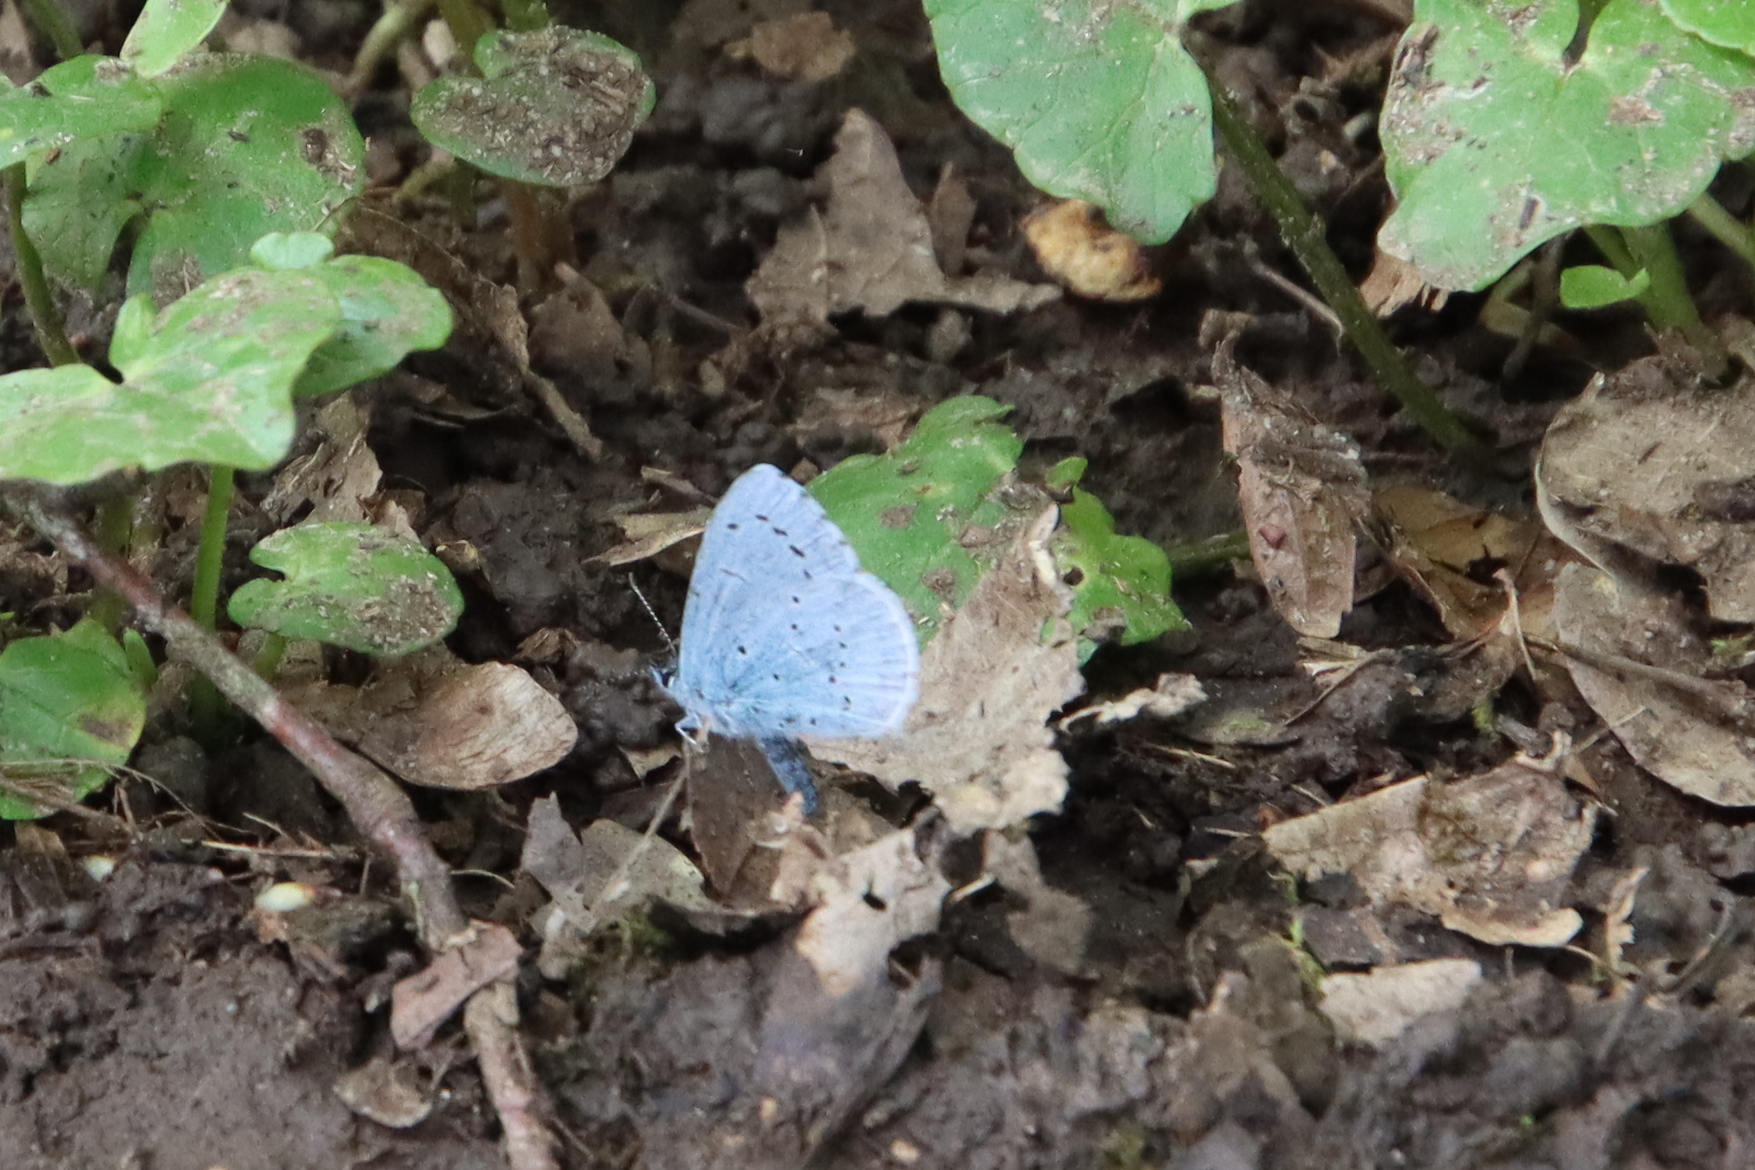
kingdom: Animalia
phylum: Arthropoda
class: Insecta
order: Lepidoptera
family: Lycaenidae
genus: Celastrina
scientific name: Celastrina argiolus
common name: Holly blue
